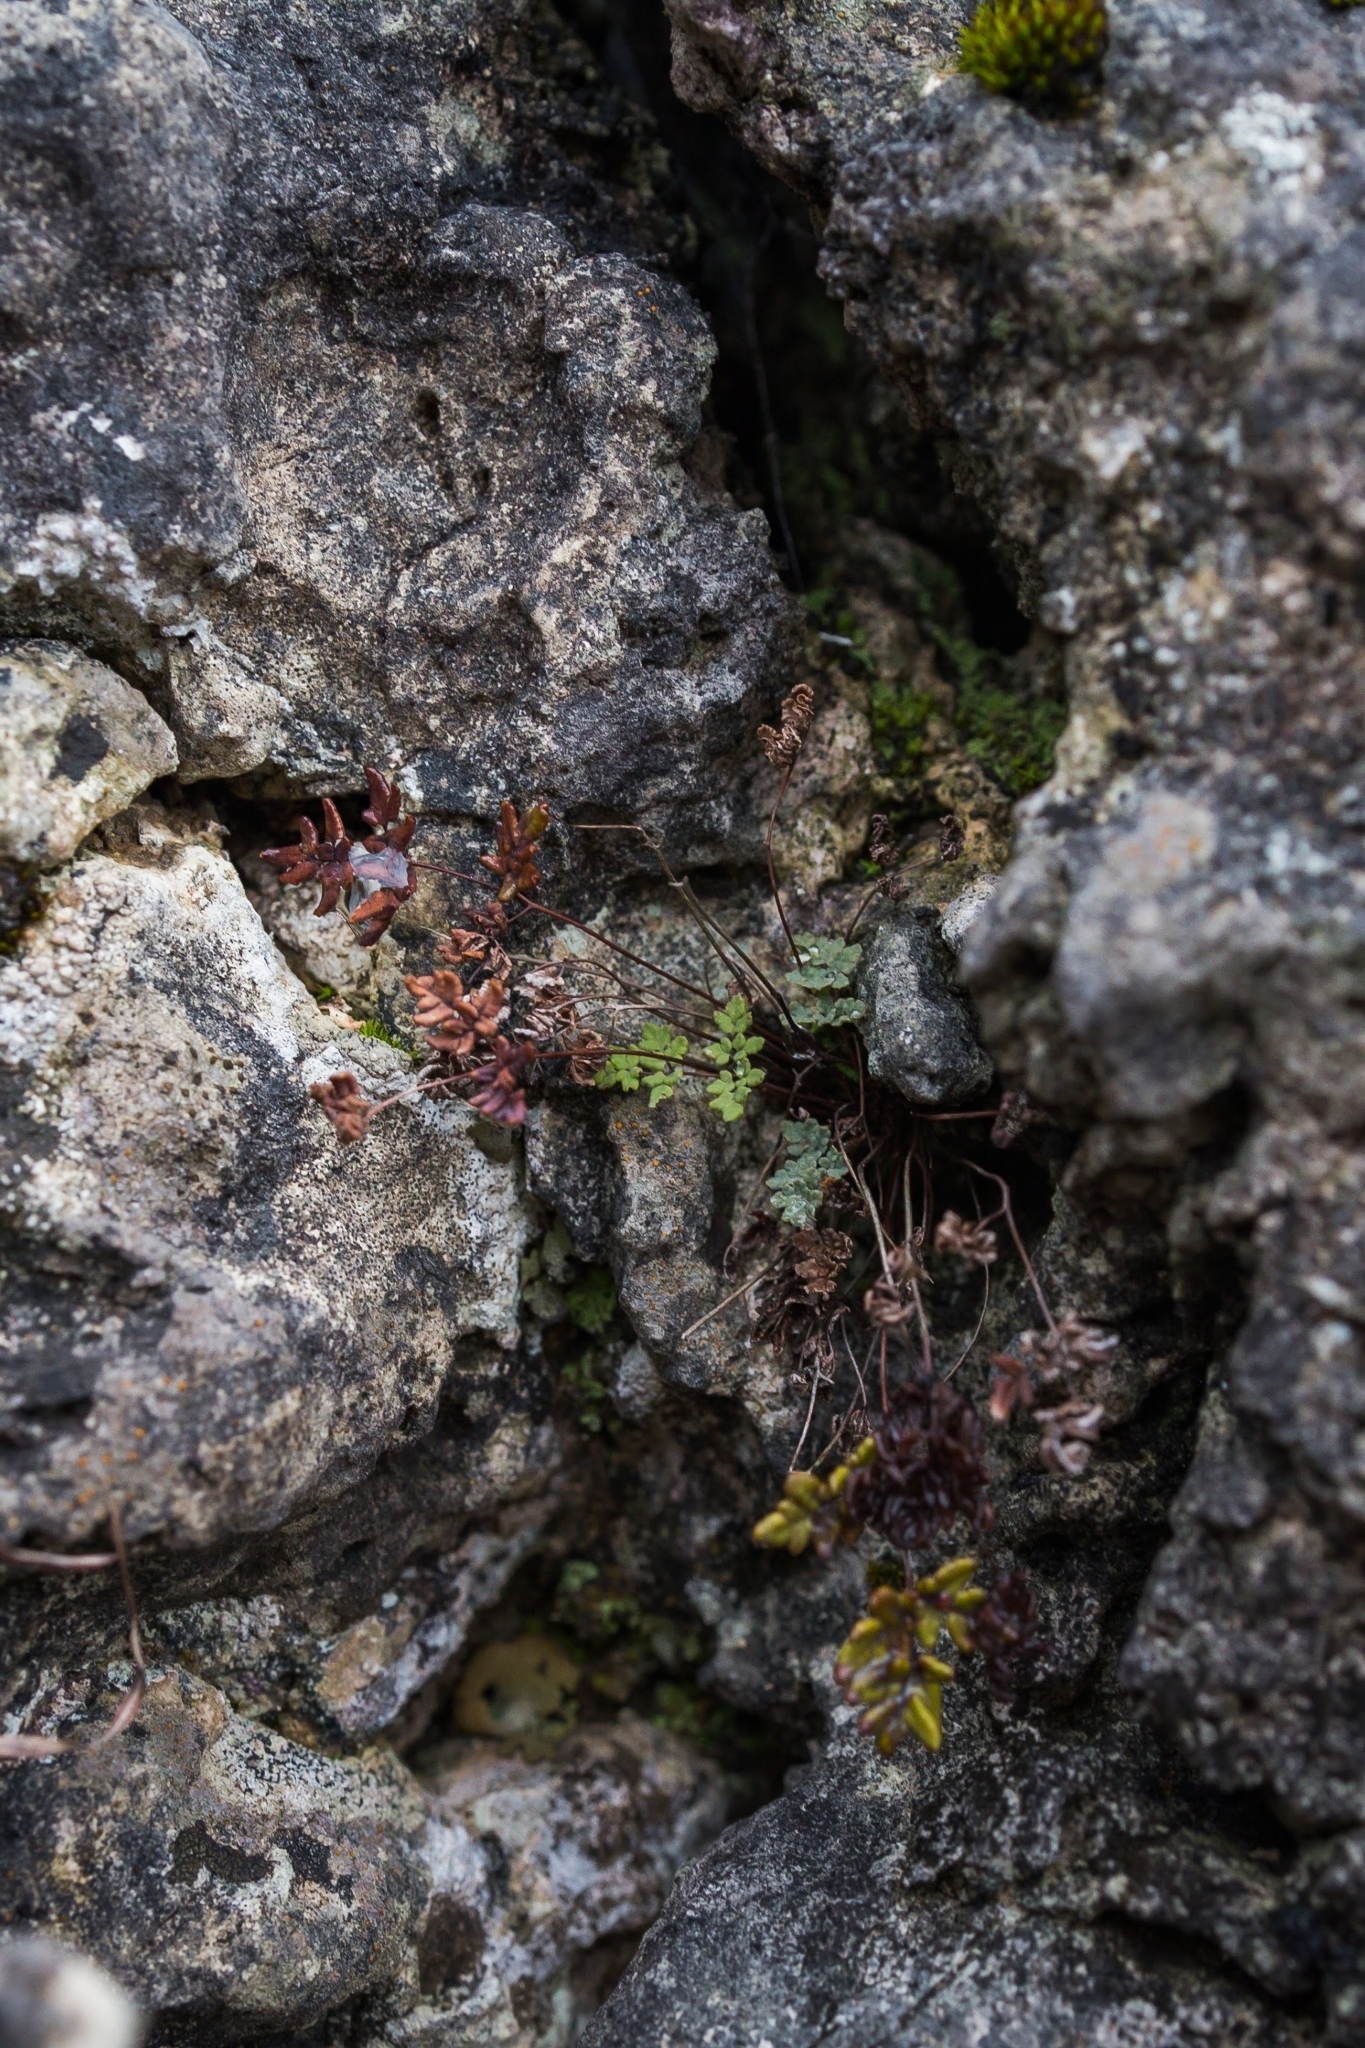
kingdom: Plantae
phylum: Tracheophyta
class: Polypodiopsida
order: Polypodiales
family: Pteridaceae
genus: Argyrochosma
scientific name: Argyrochosma dealbata
